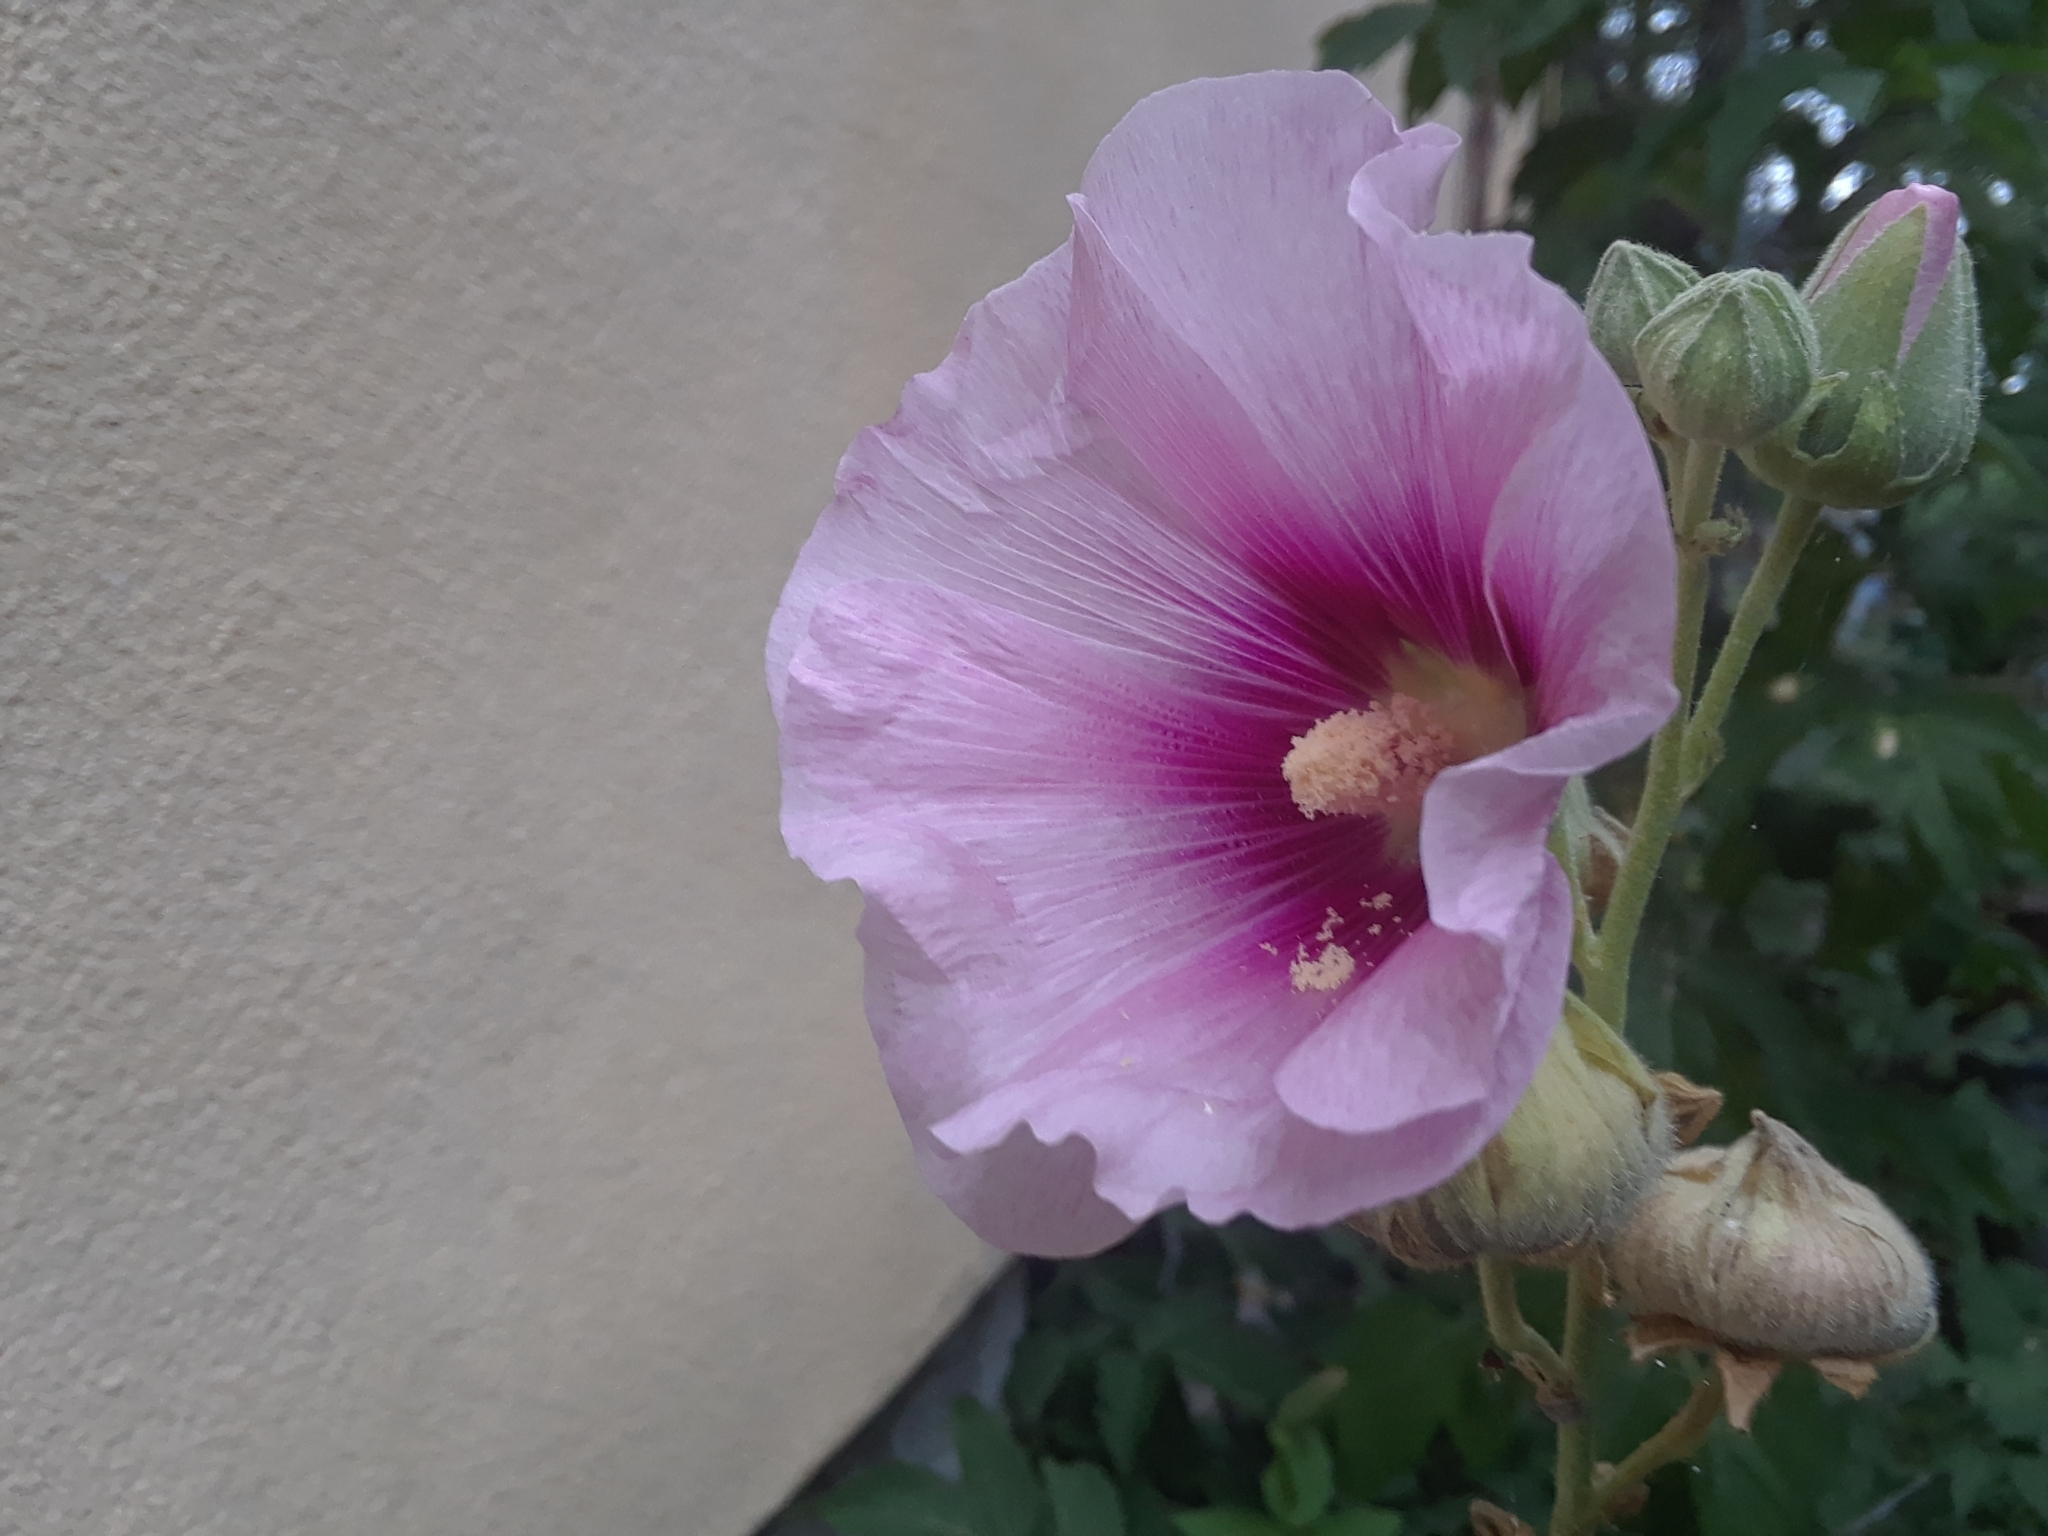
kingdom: Plantae
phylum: Tracheophyta
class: Magnoliopsida
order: Malvales
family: Malvaceae
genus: Alcea
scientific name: Alcea rosea
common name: Hollyhock
